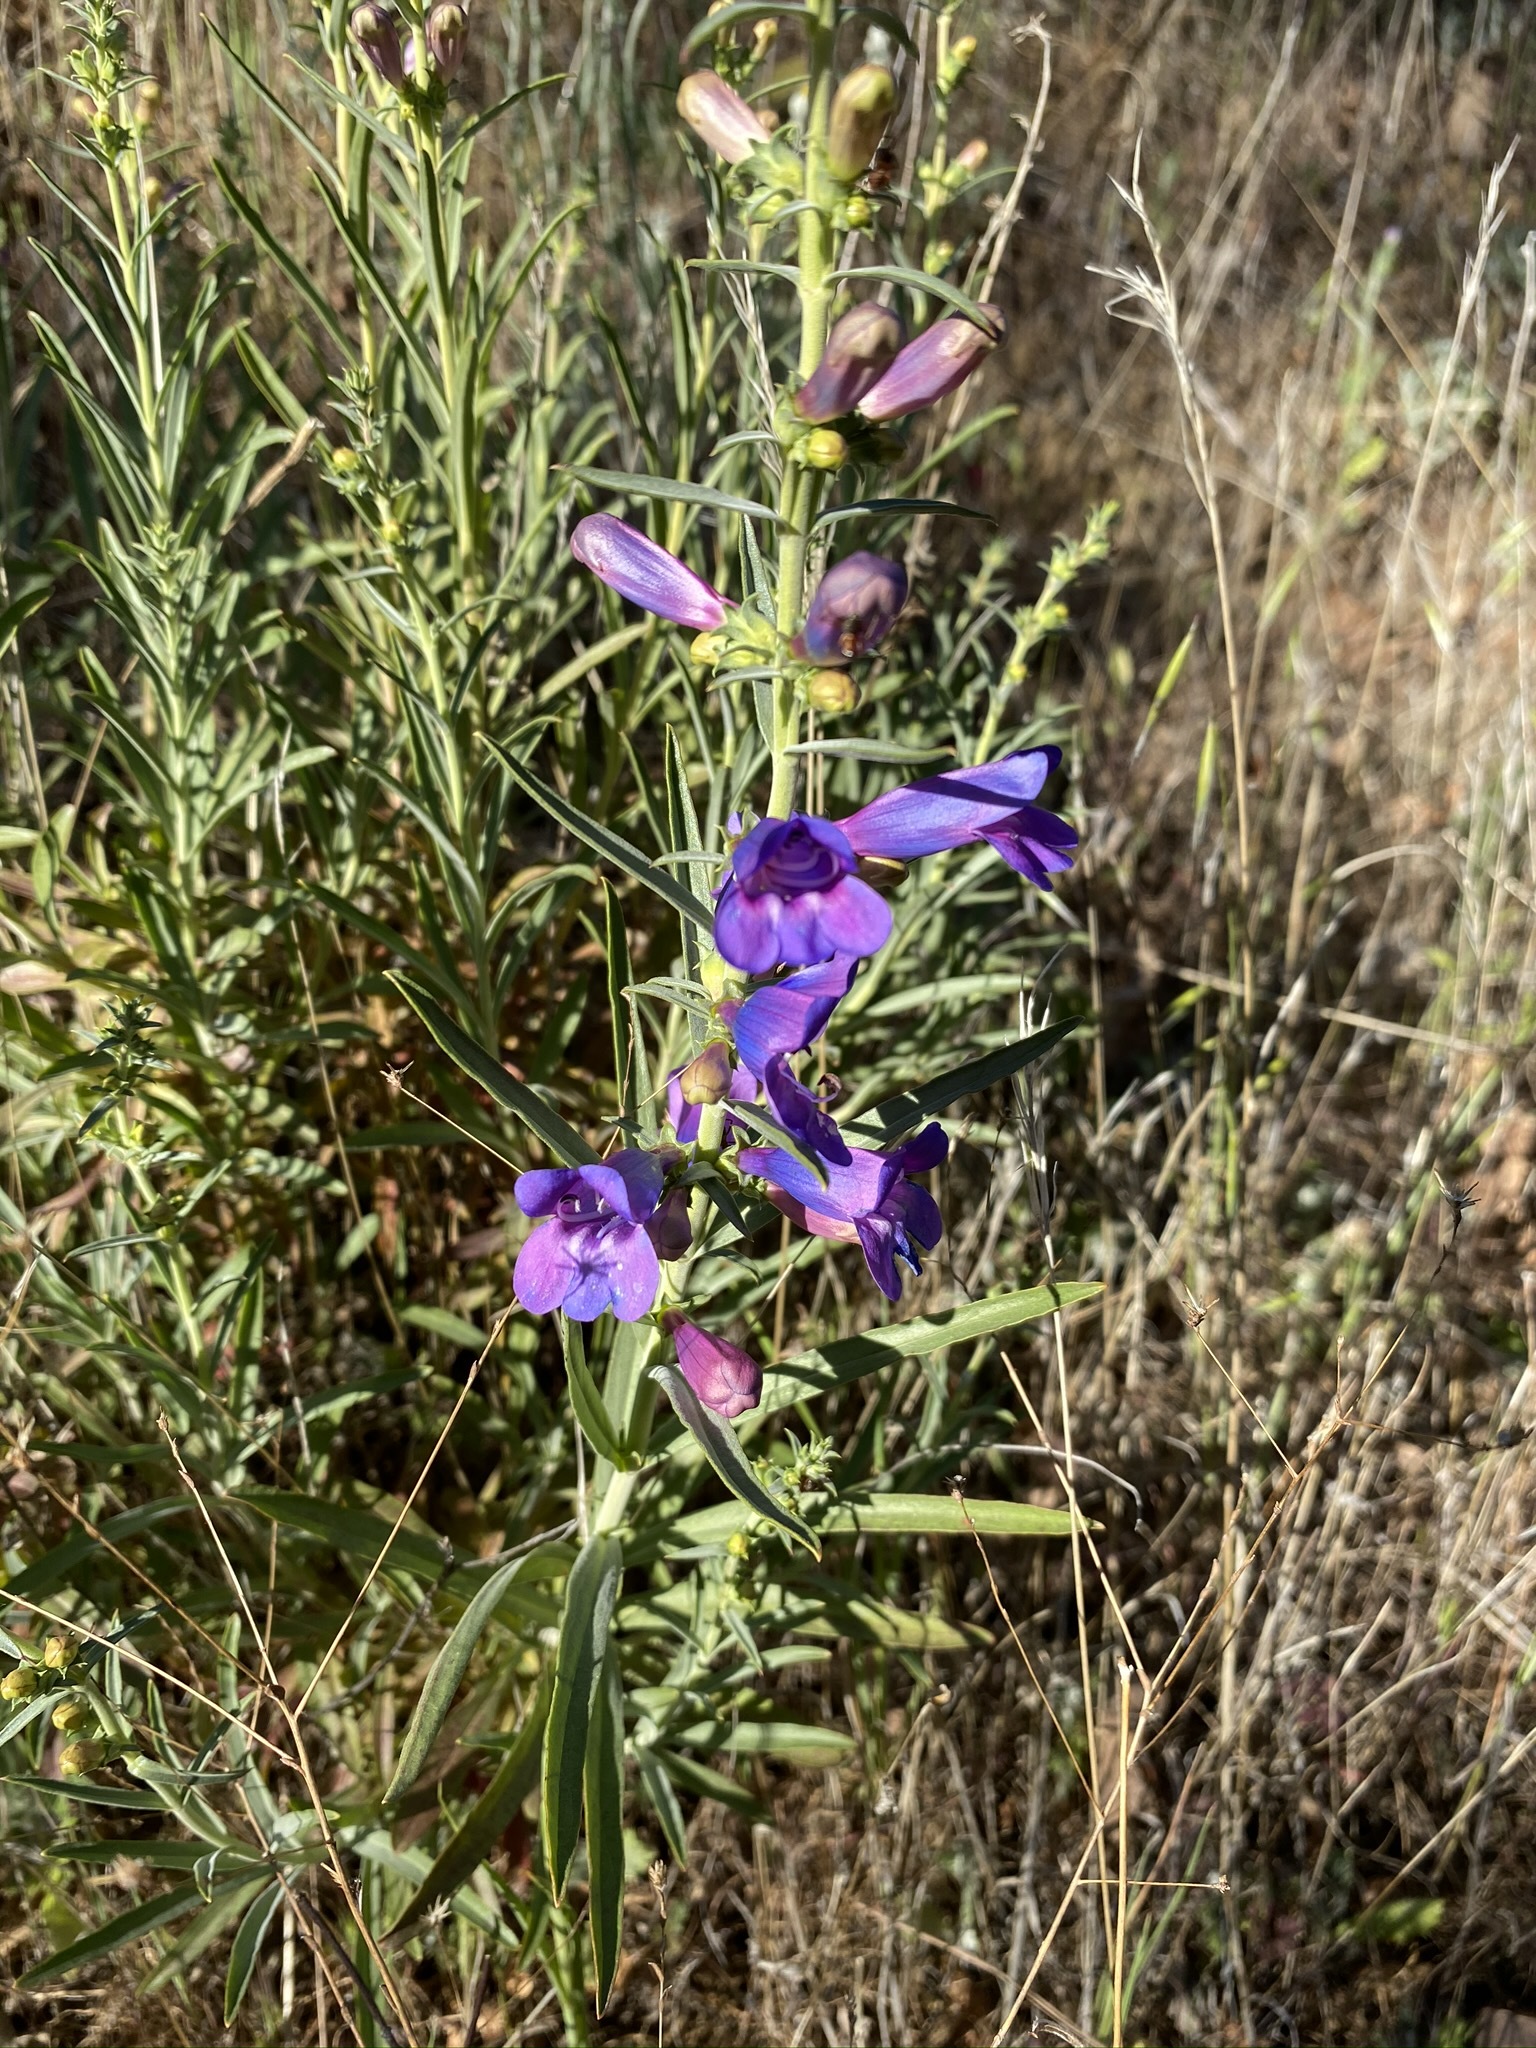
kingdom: Plantae
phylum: Tracheophyta
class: Magnoliopsida
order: Lamiales
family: Plantaginaceae
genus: Penstemon
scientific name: Penstemon heterophyllus
